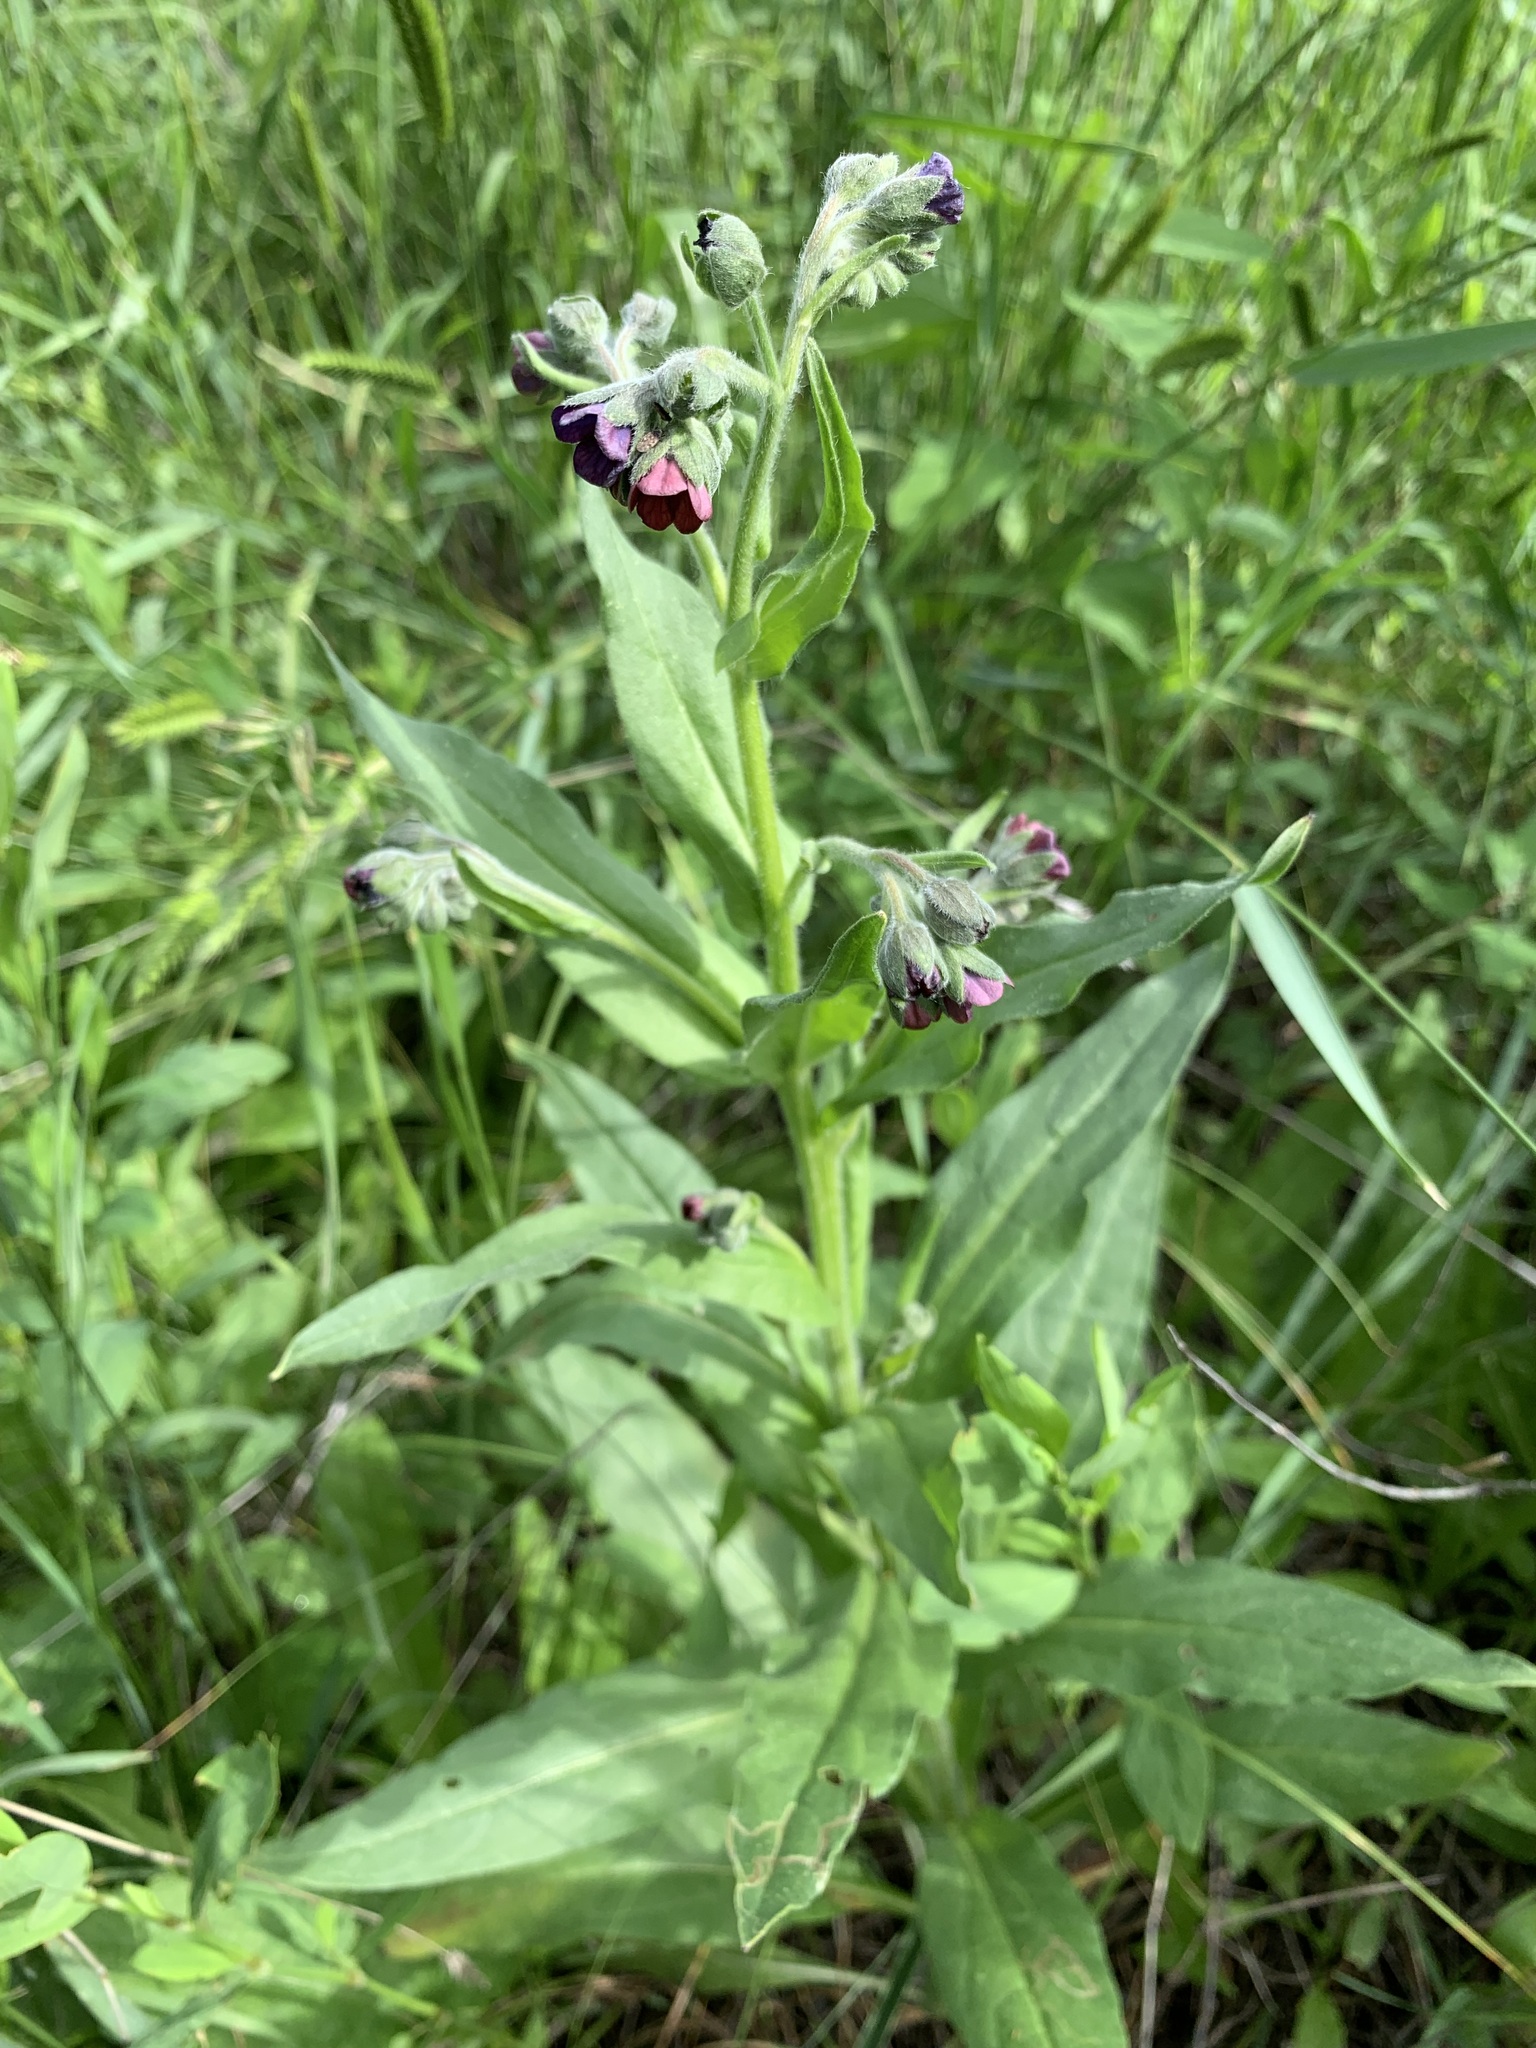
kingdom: Plantae
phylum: Tracheophyta
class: Magnoliopsida
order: Boraginales
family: Boraginaceae
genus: Cynoglossum
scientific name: Cynoglossum officinale
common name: Hound's-tongue
